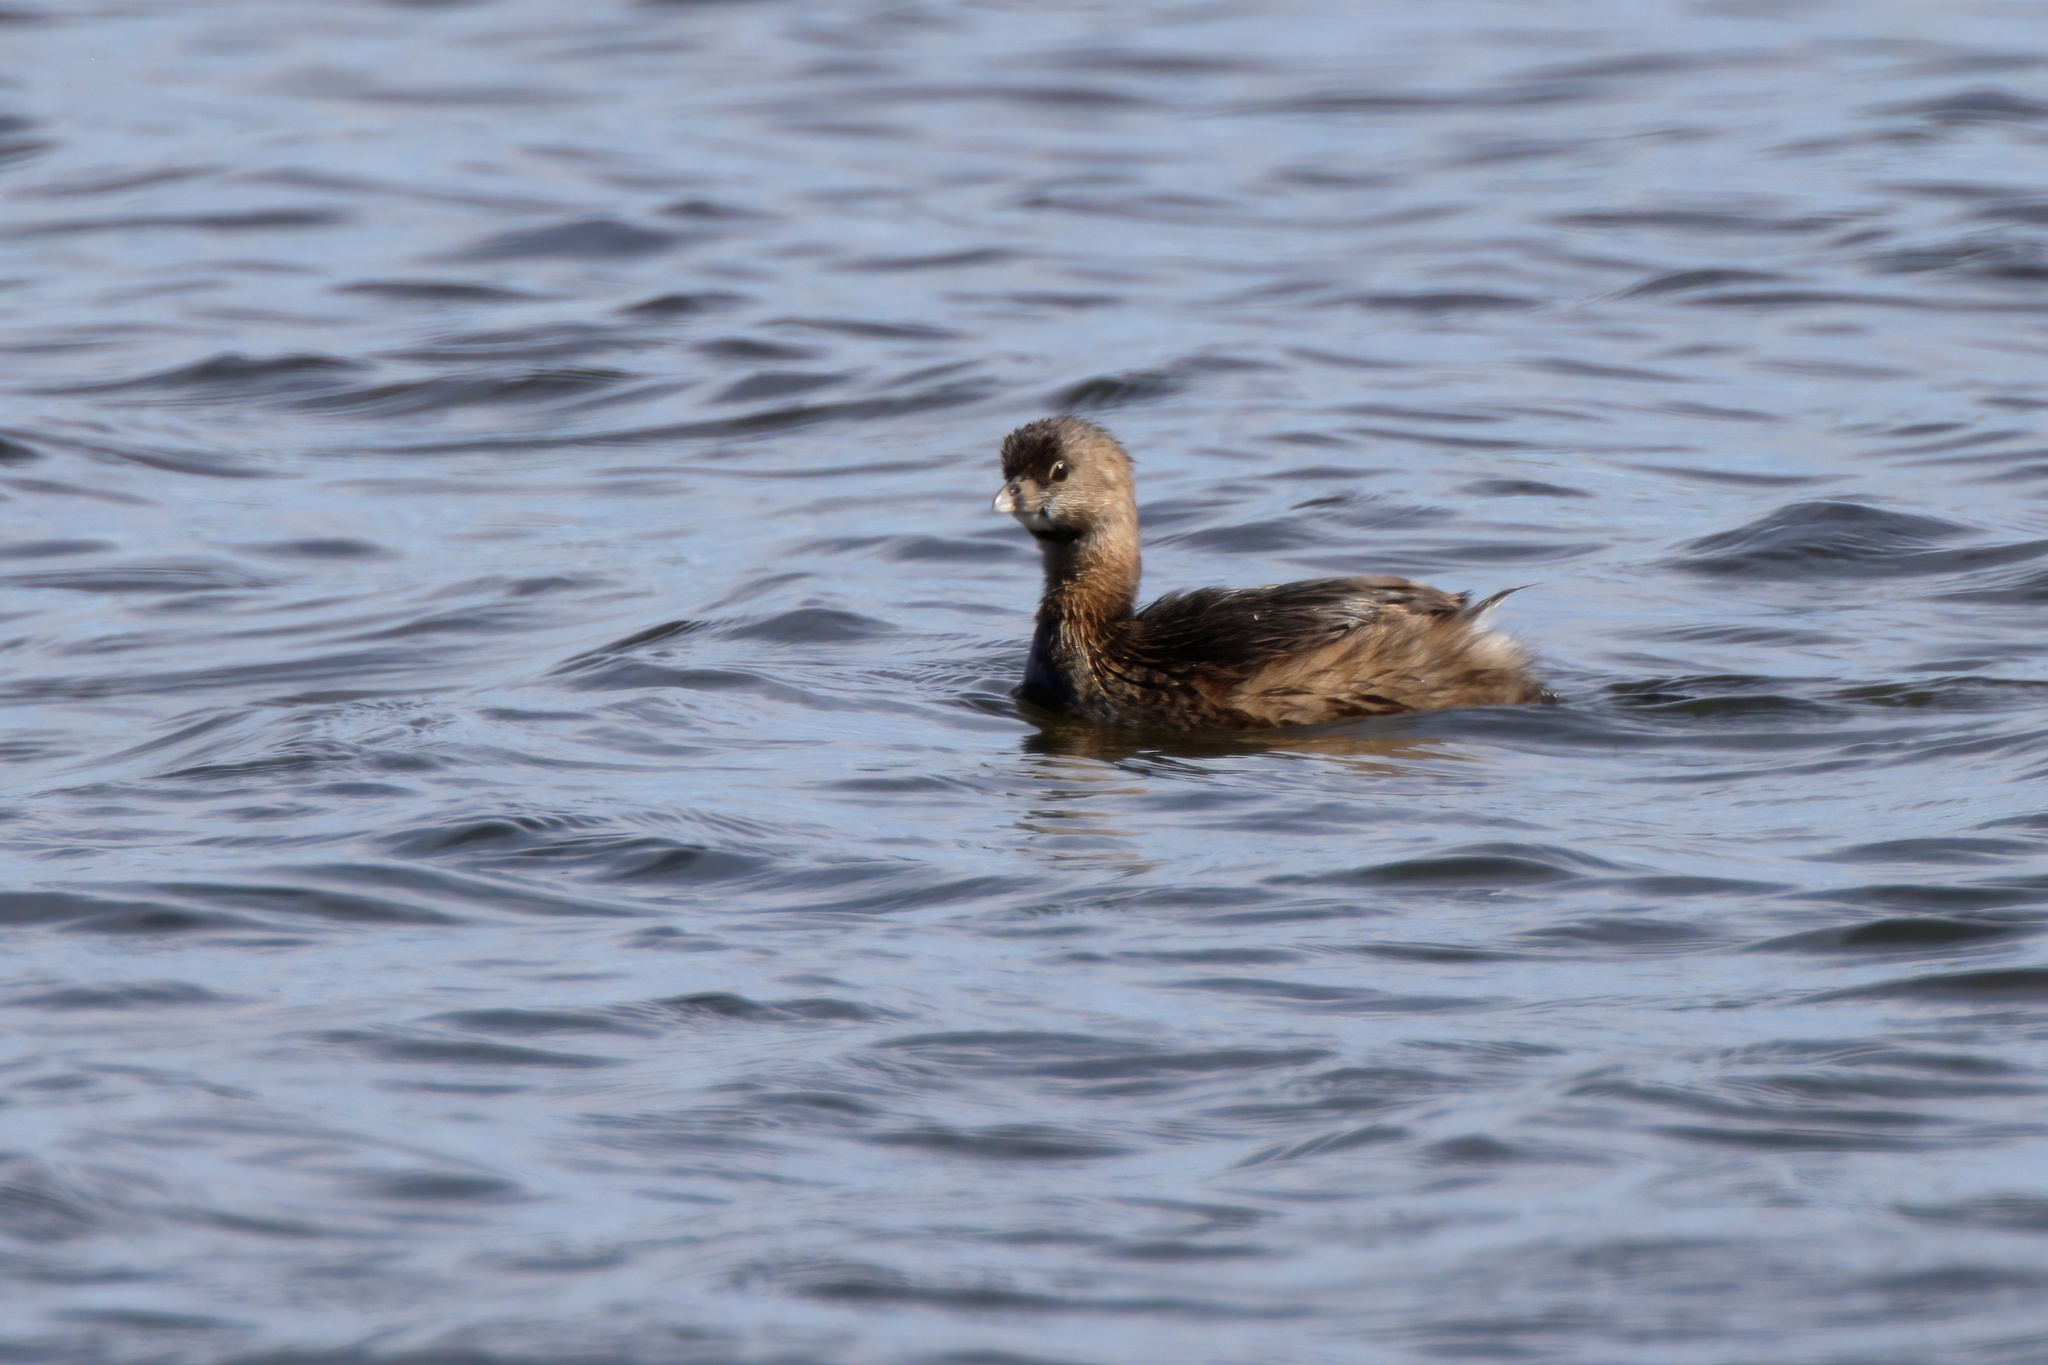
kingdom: Animalia
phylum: Chordata
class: Aves
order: Podicipediformes
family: Podicipedidae
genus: Podilymbus
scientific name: Podilymbus podiceps
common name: Pied-billed grebe
